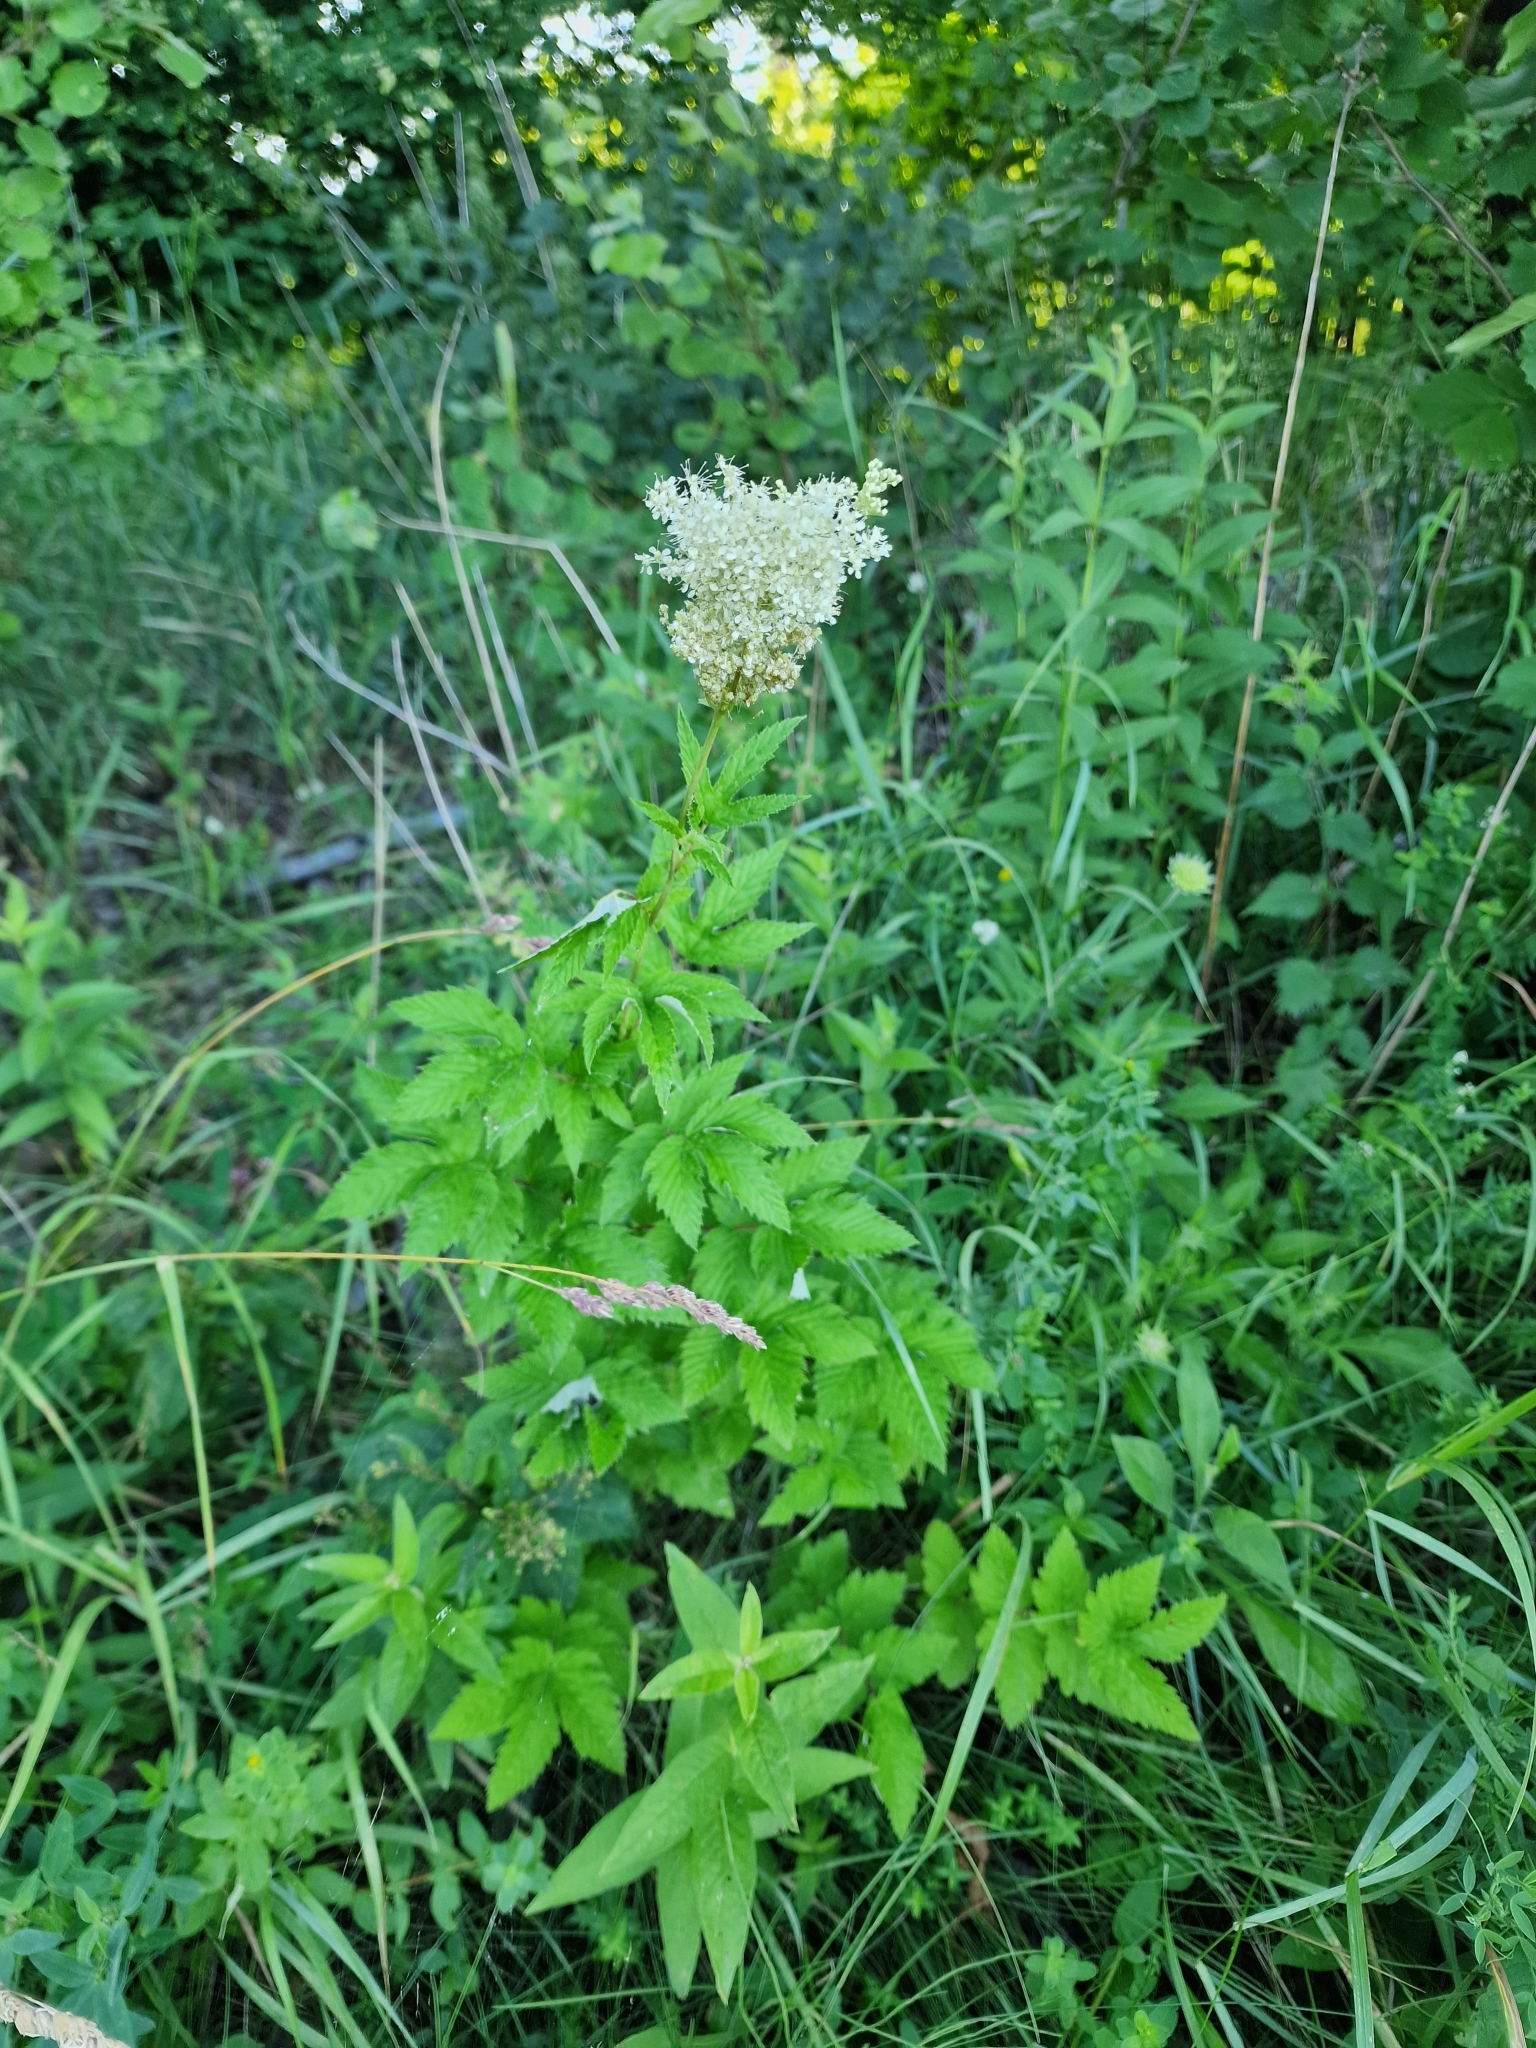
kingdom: Plantae
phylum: Tracheophyta
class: Magnoliopsida
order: Rosales
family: Rosaceae
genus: Filipendula
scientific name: Filipendula ulmaria
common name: Meadowsweet
